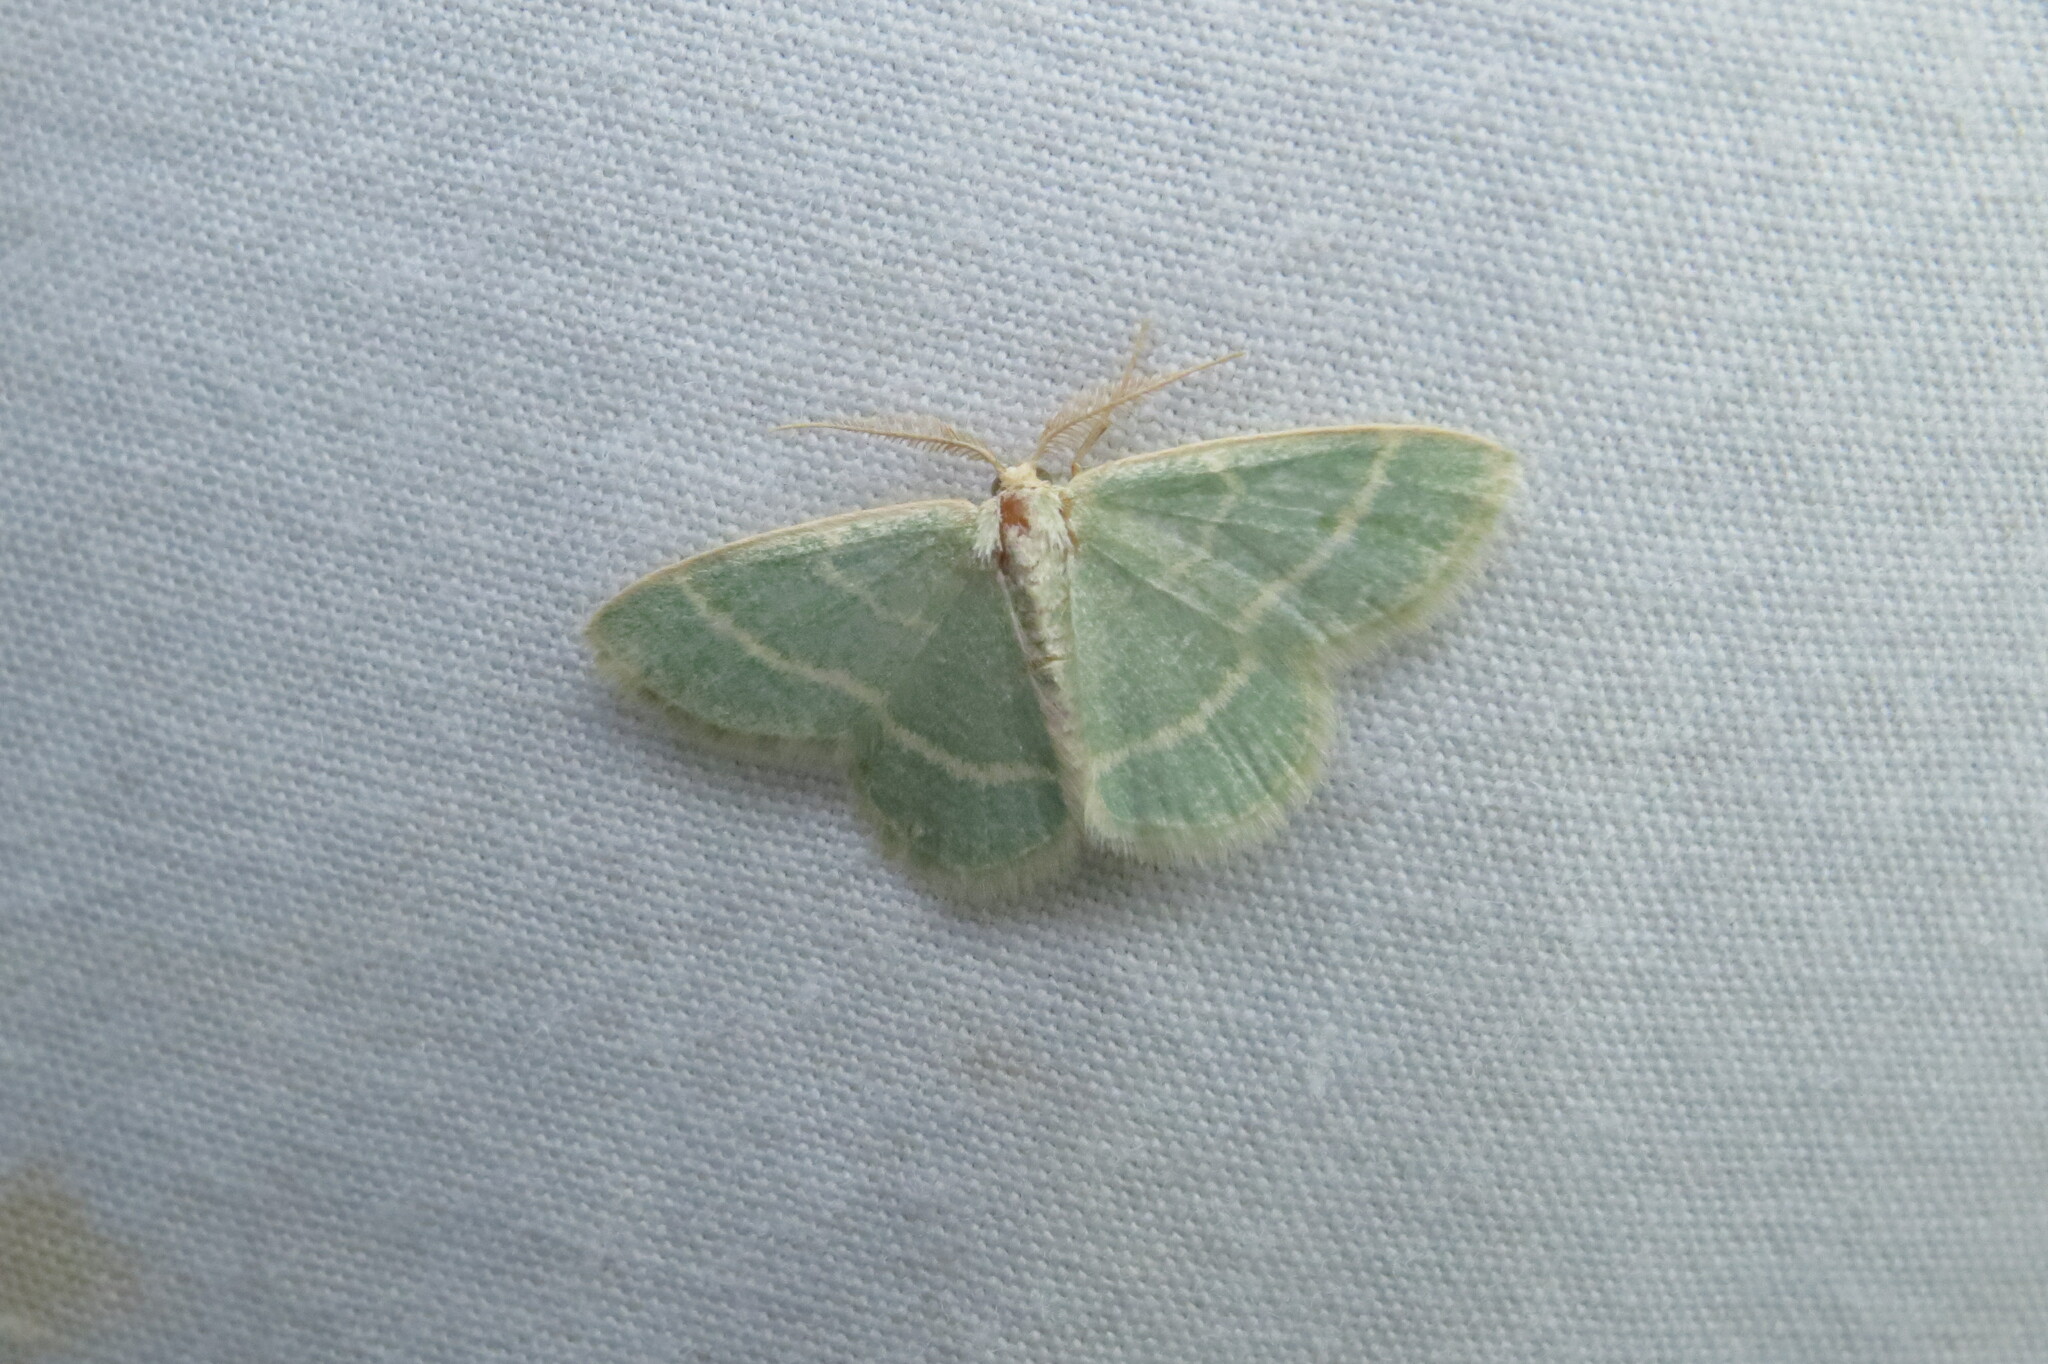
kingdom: Animalia
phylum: Arthropoda
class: Insecta
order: Lepidoptera
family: Geometridae
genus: Chlorochlamys
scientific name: Chlorochlamys chloroleucaria
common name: Blackberry looper
